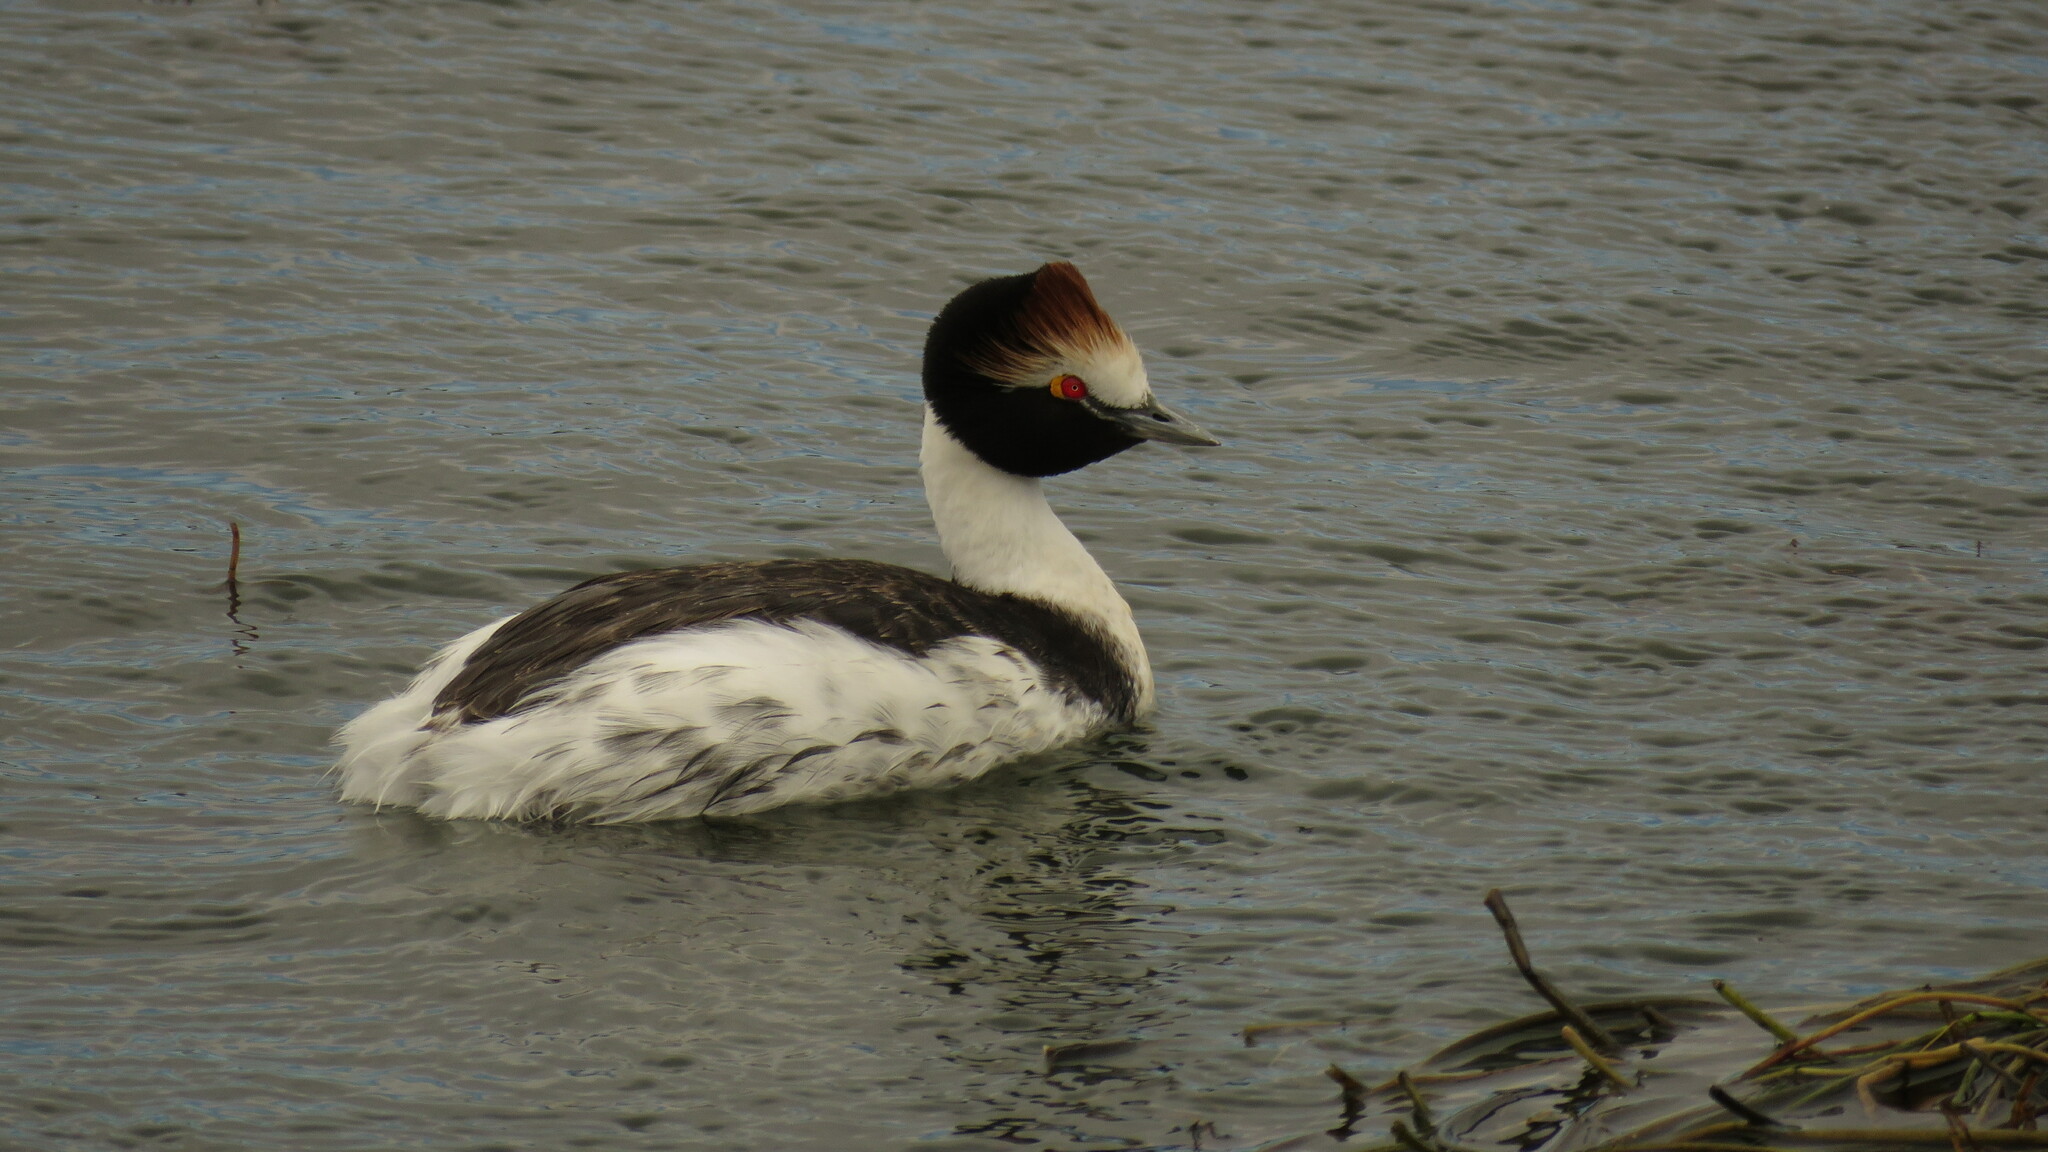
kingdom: Animalia
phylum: Chordata
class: Aves
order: Podicipediformes
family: Podicipedidae
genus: Podiceps
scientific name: Podiceps gallardoi
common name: Hooded grebe
